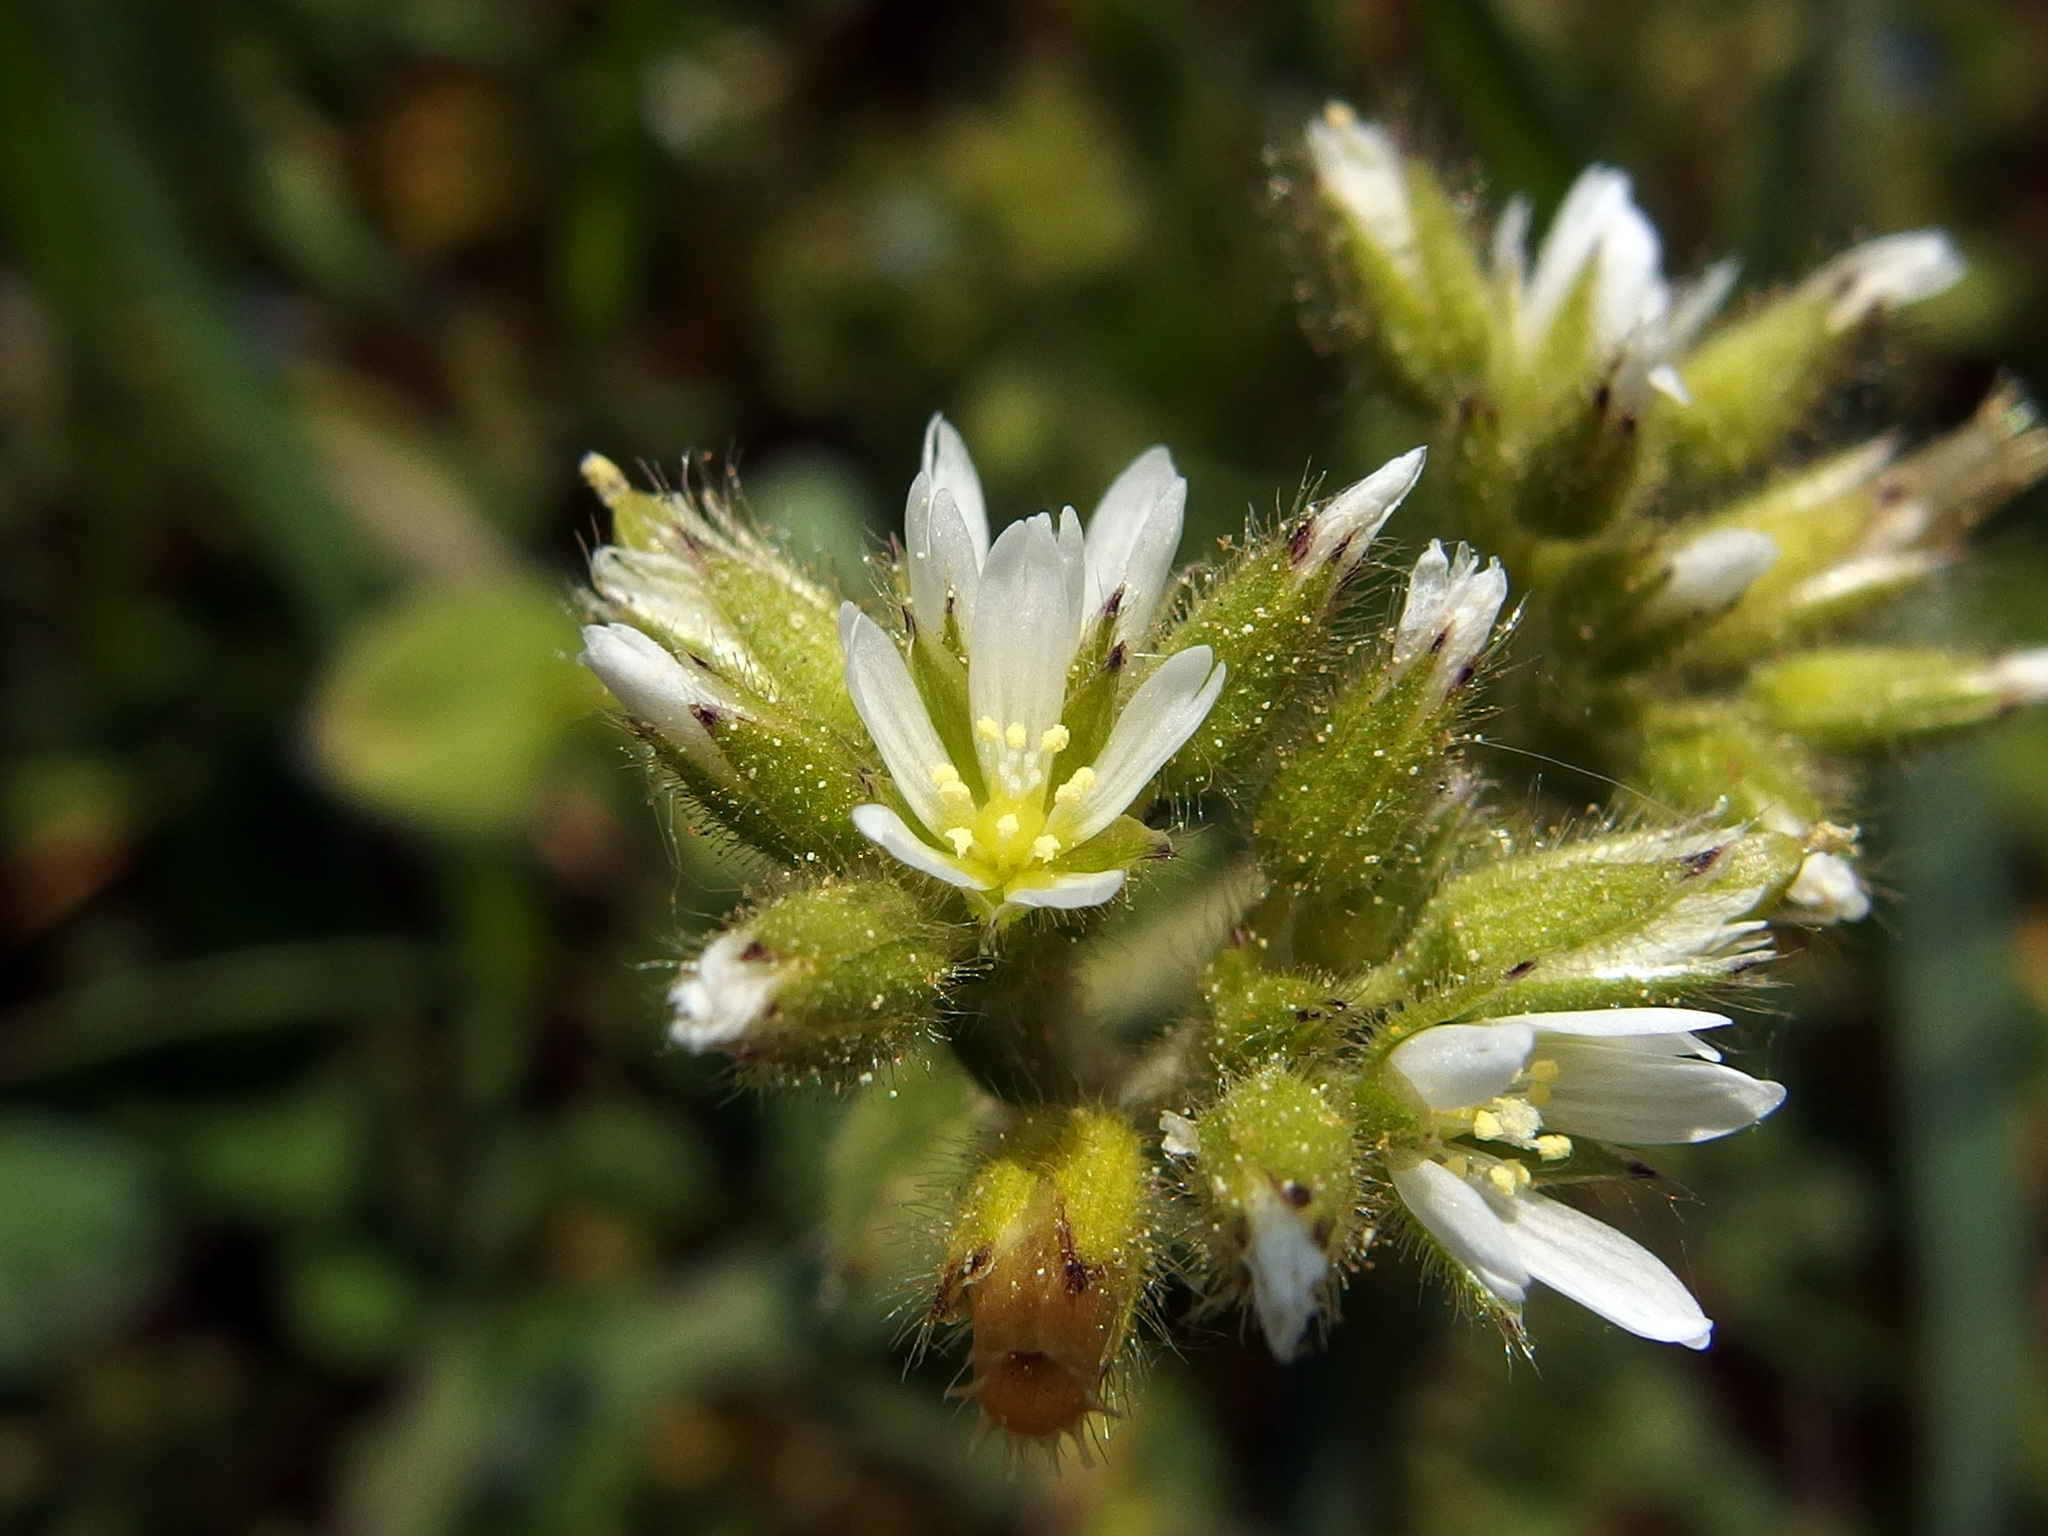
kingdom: Plantae
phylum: Tracheophyta
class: Magnoliopsida
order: Caryophyllales
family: Caryophyllaceae
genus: Cerastium
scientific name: Cerastium glomeratum
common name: Sticky chickweed
